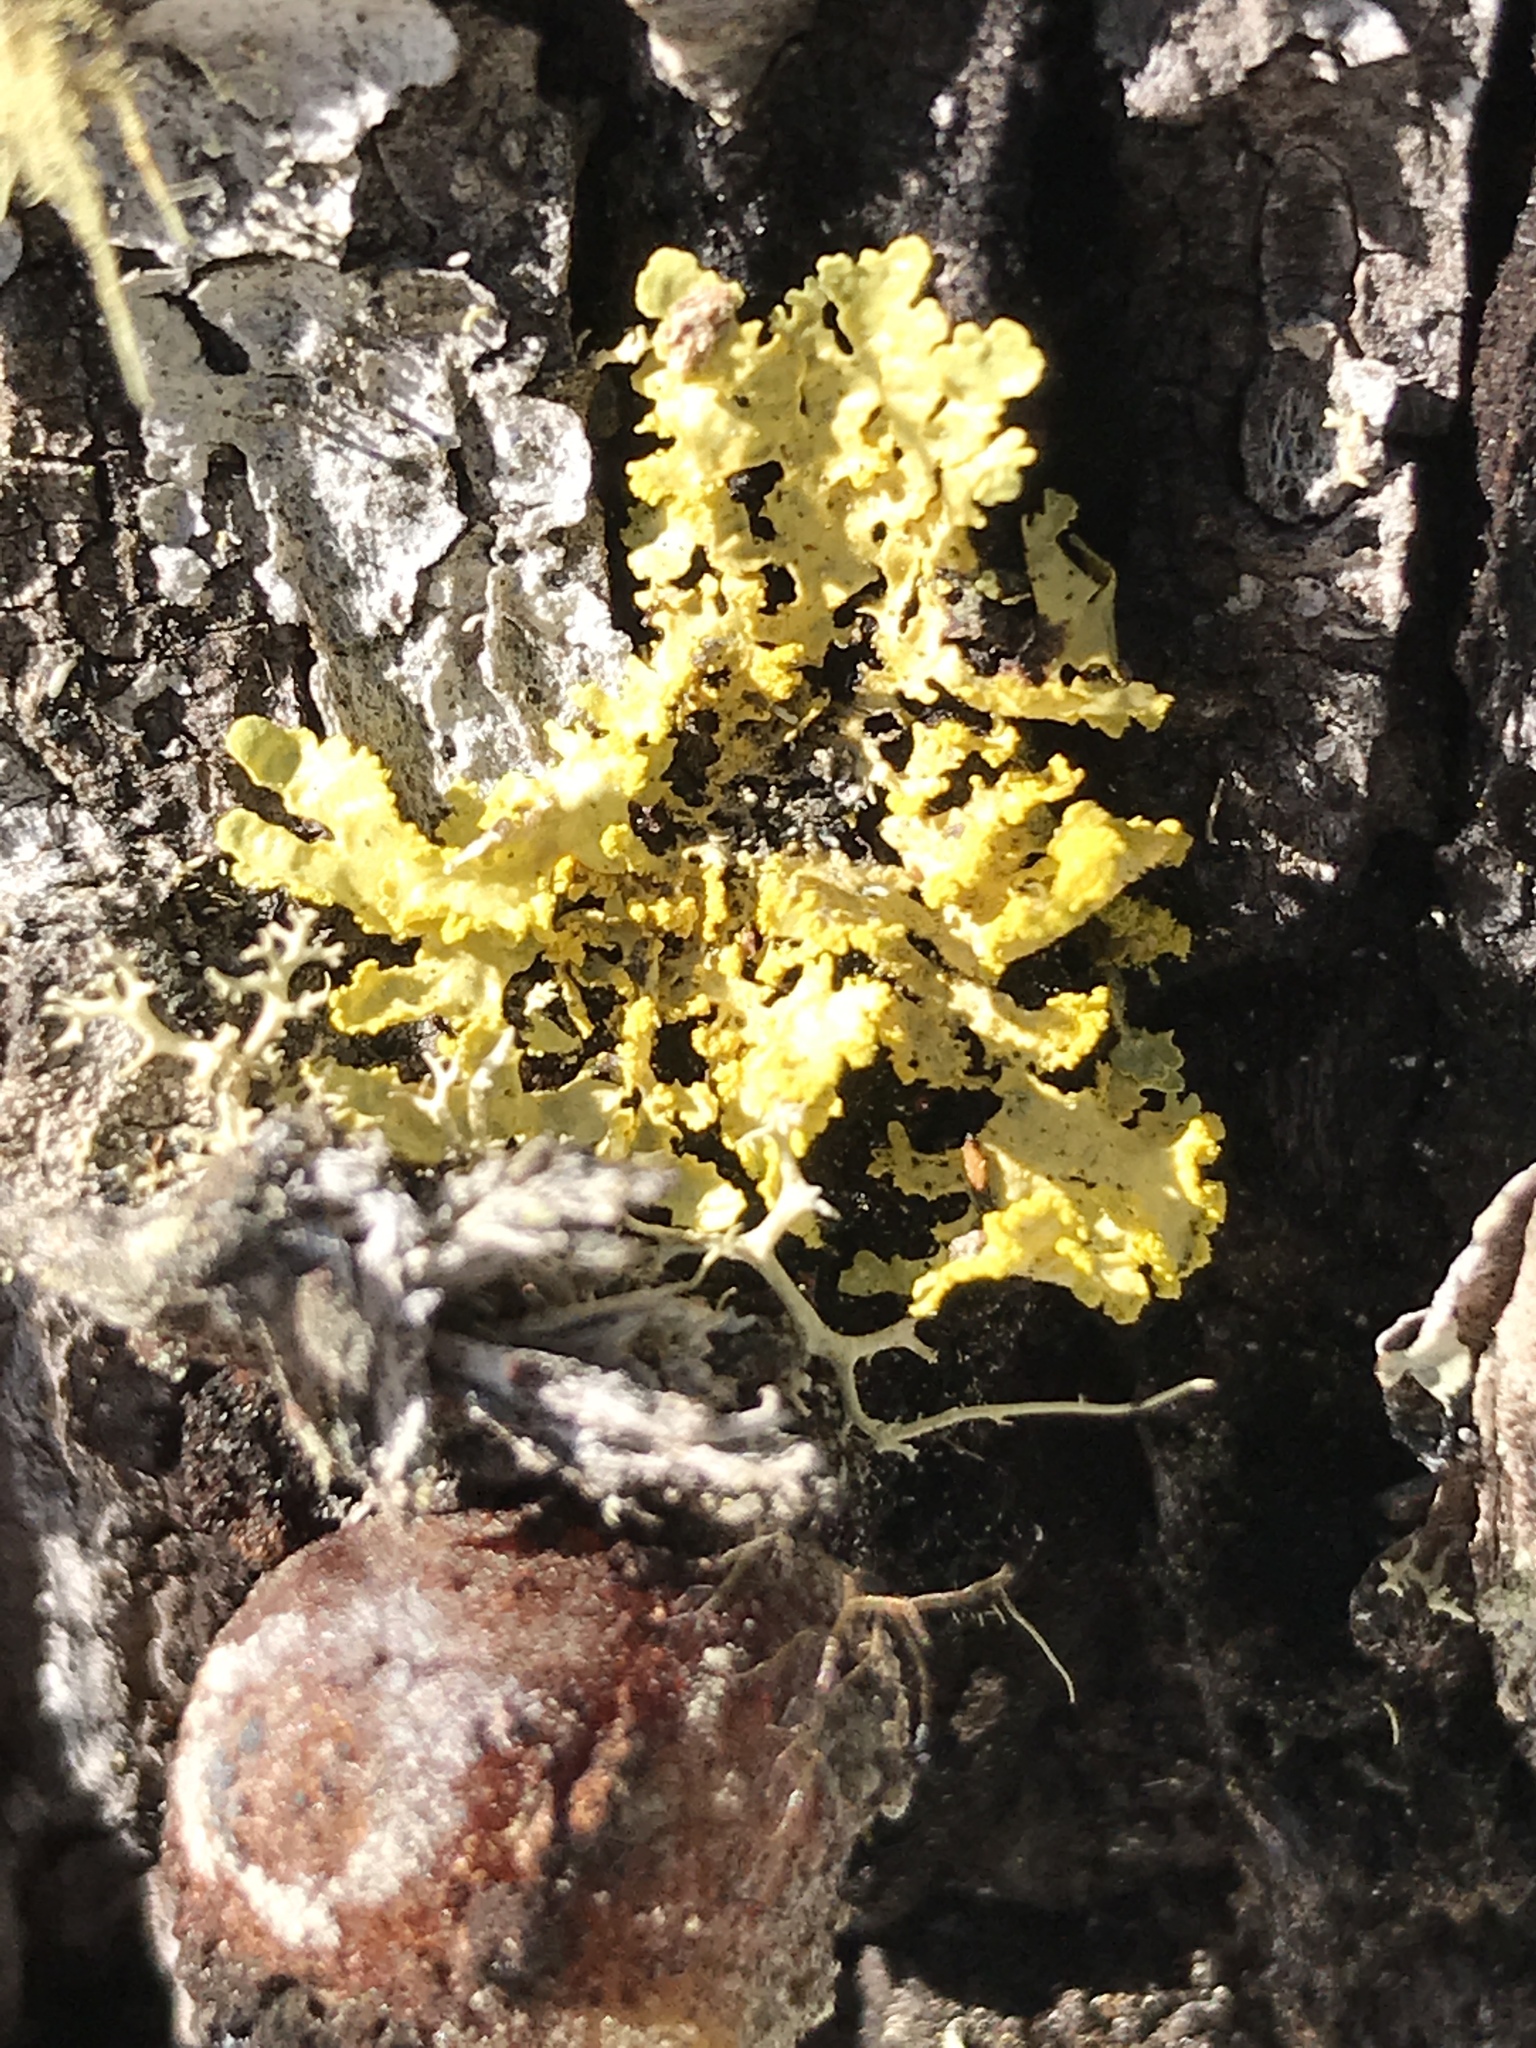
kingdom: Fungi
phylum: Ascomycota
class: Lecanoromycetes
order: Lecanorales
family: Parmeliaceae
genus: Vulpicida
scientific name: Vulpicida pinastri
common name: Powdered sunshine lichen
